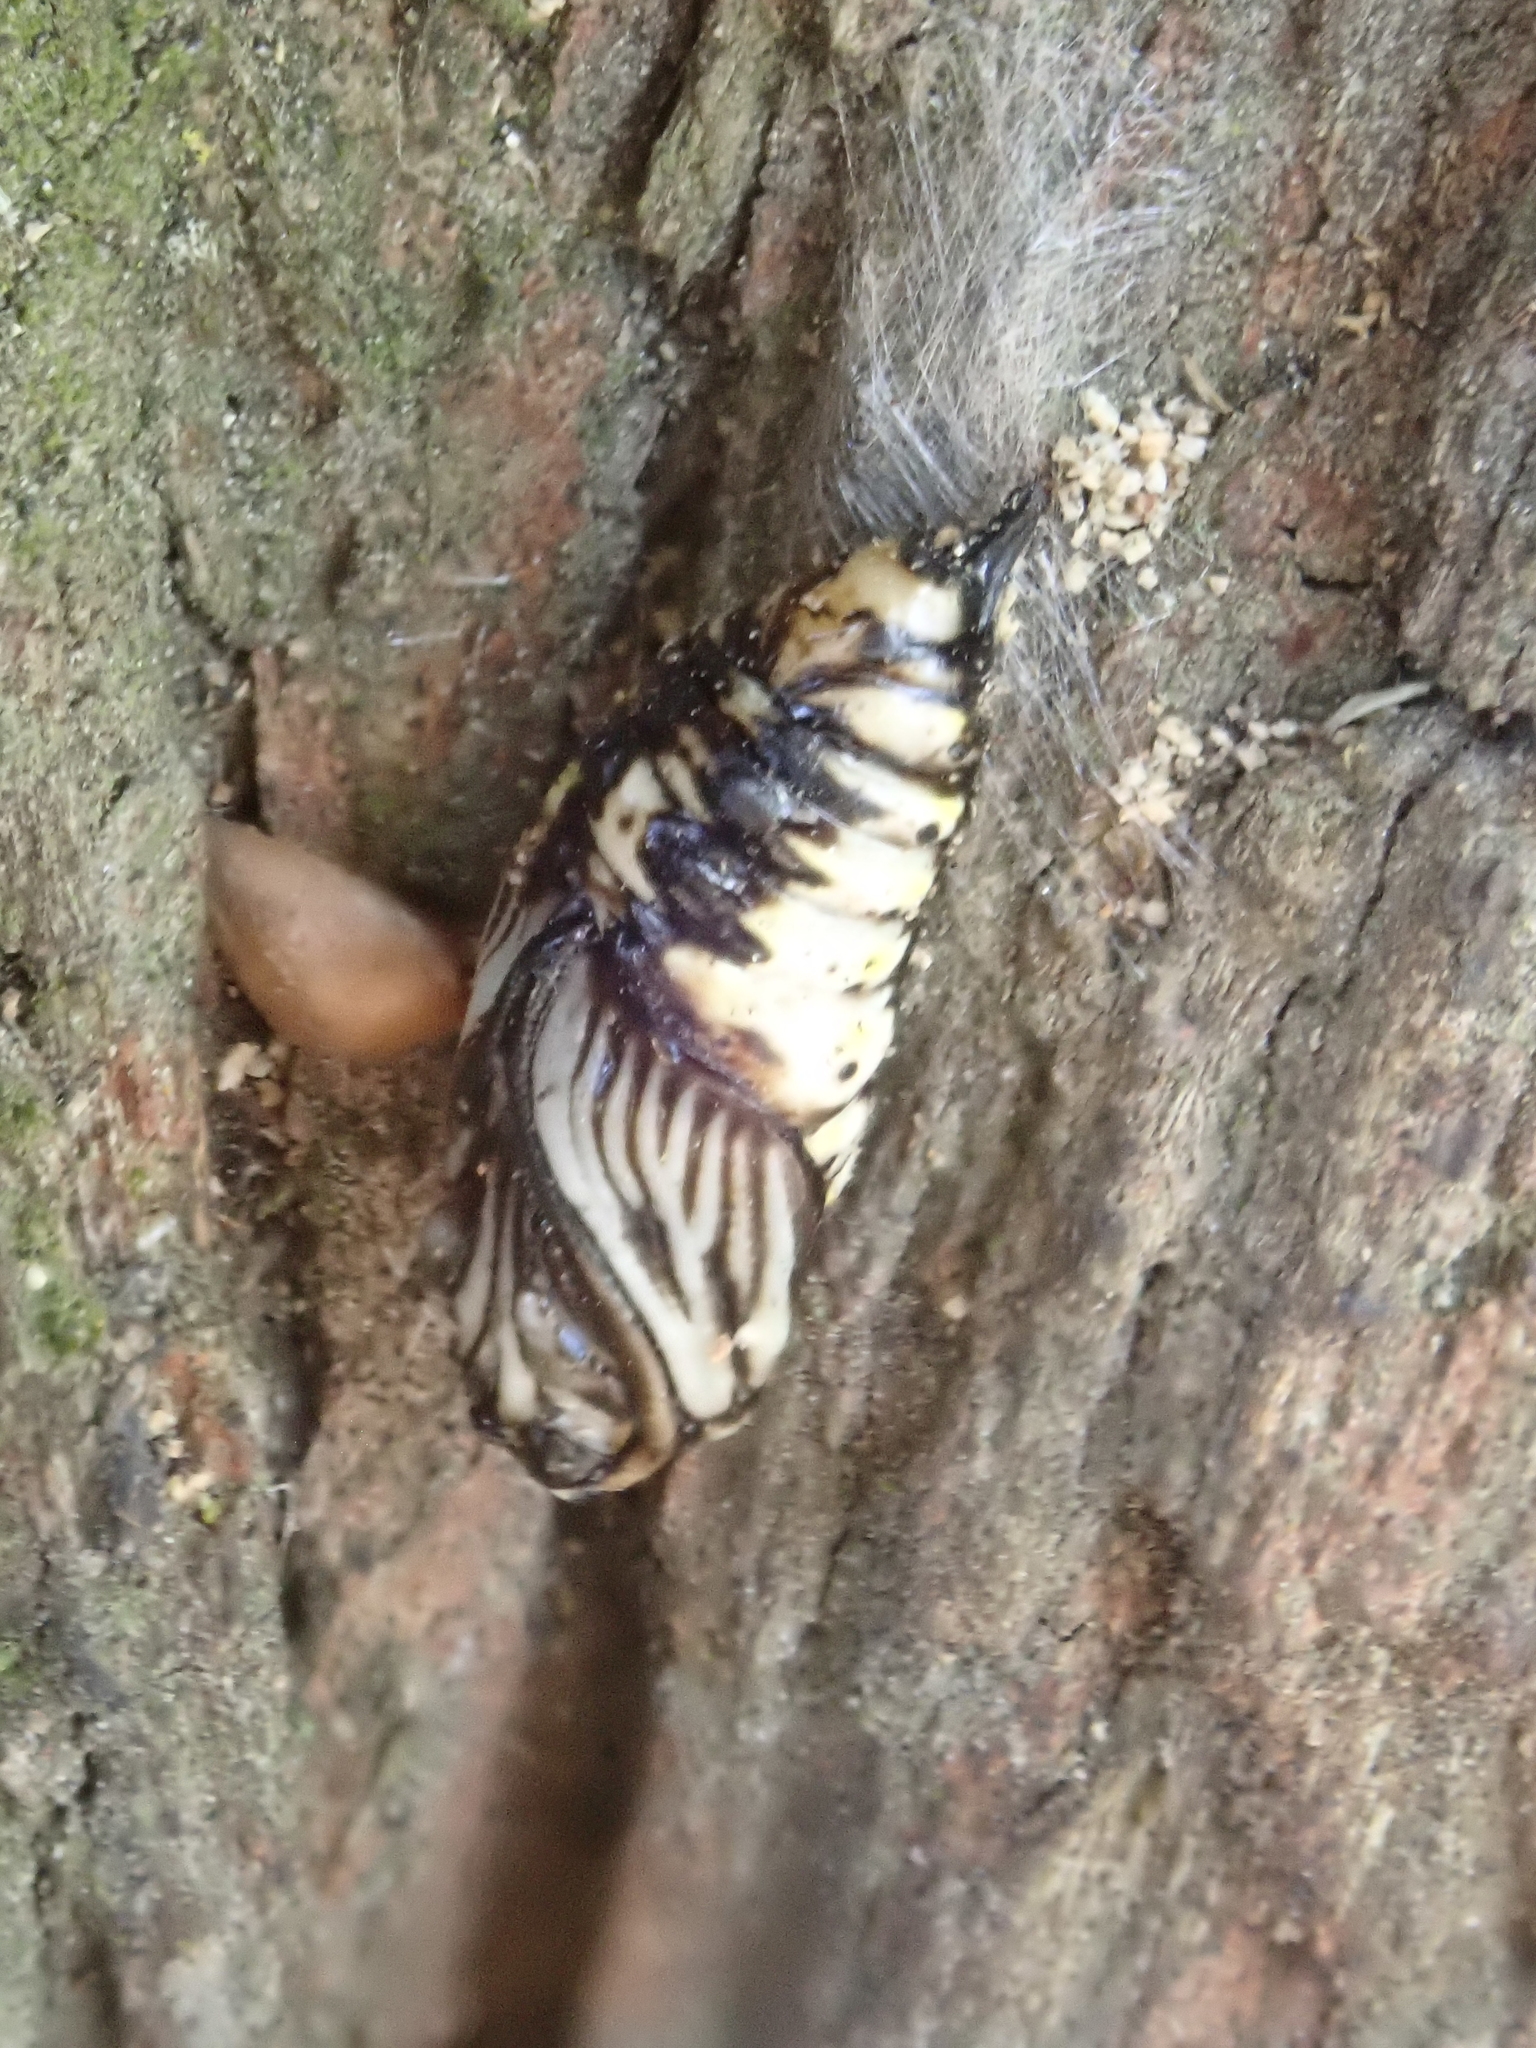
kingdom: Animalia
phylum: Arthropoda
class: Insecta
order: Lepidoptera
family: Notodontidae
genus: Phryganidia
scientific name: Phryganidia californica
